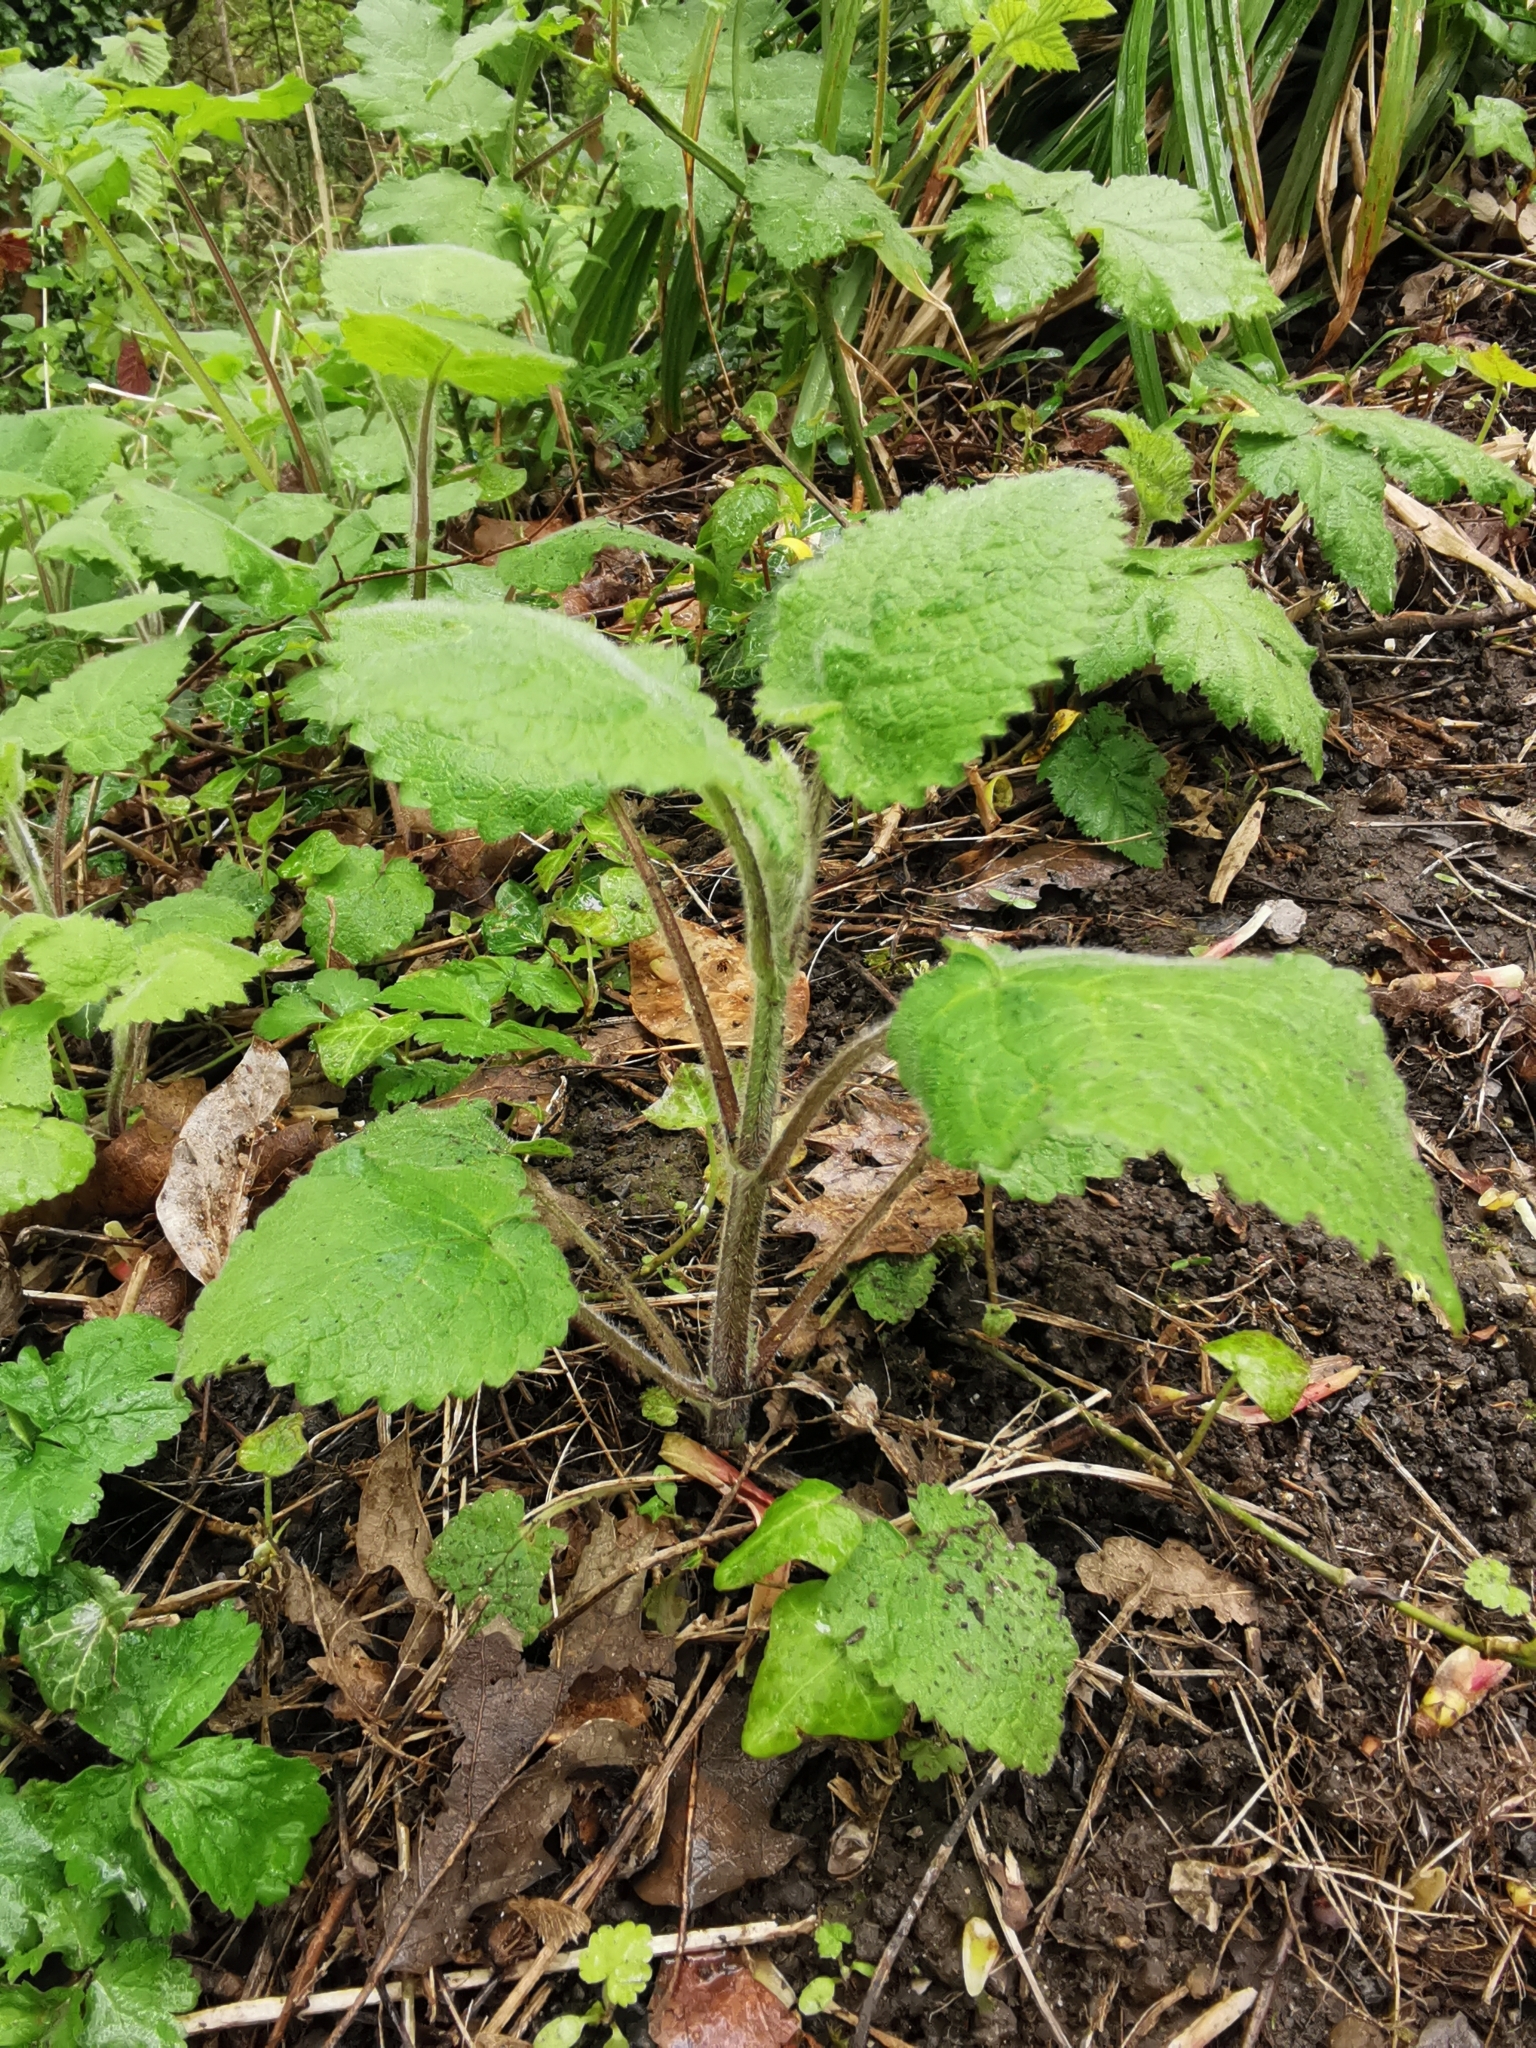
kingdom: Plantae
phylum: Tracheophyta
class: Magnoliopsida
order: Lamiales
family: Lamiaceae
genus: Stachys
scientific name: Stachys sylvatica
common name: Hedge woundwort
